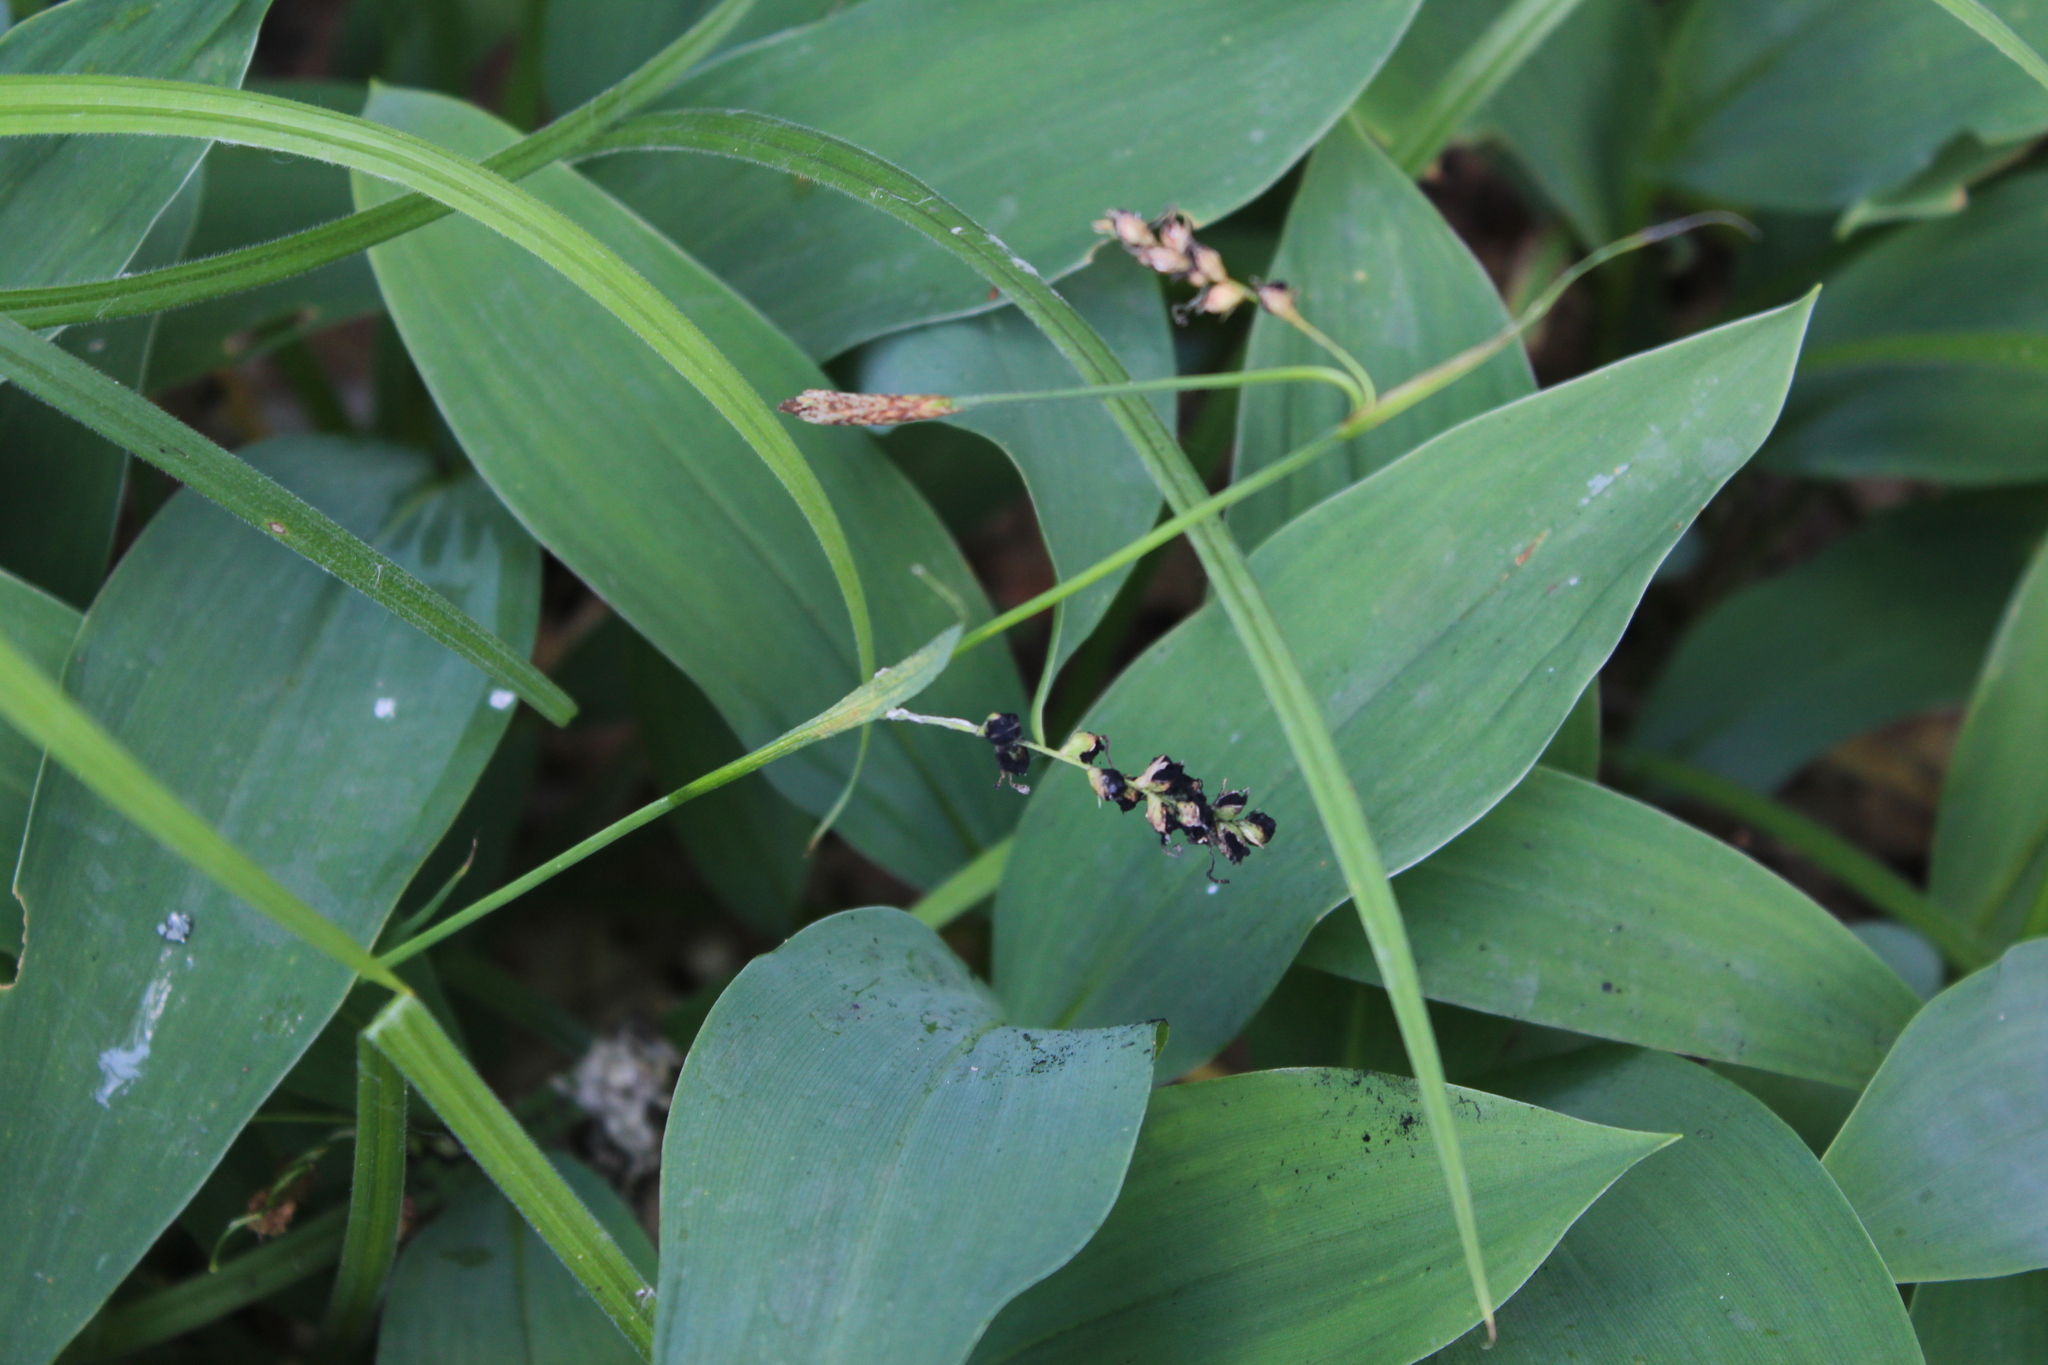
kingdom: Plantae
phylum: Tracheophyta
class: Liliopsida
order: Poales
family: Cyperaceae
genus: Carex
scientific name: Carex pilosa
